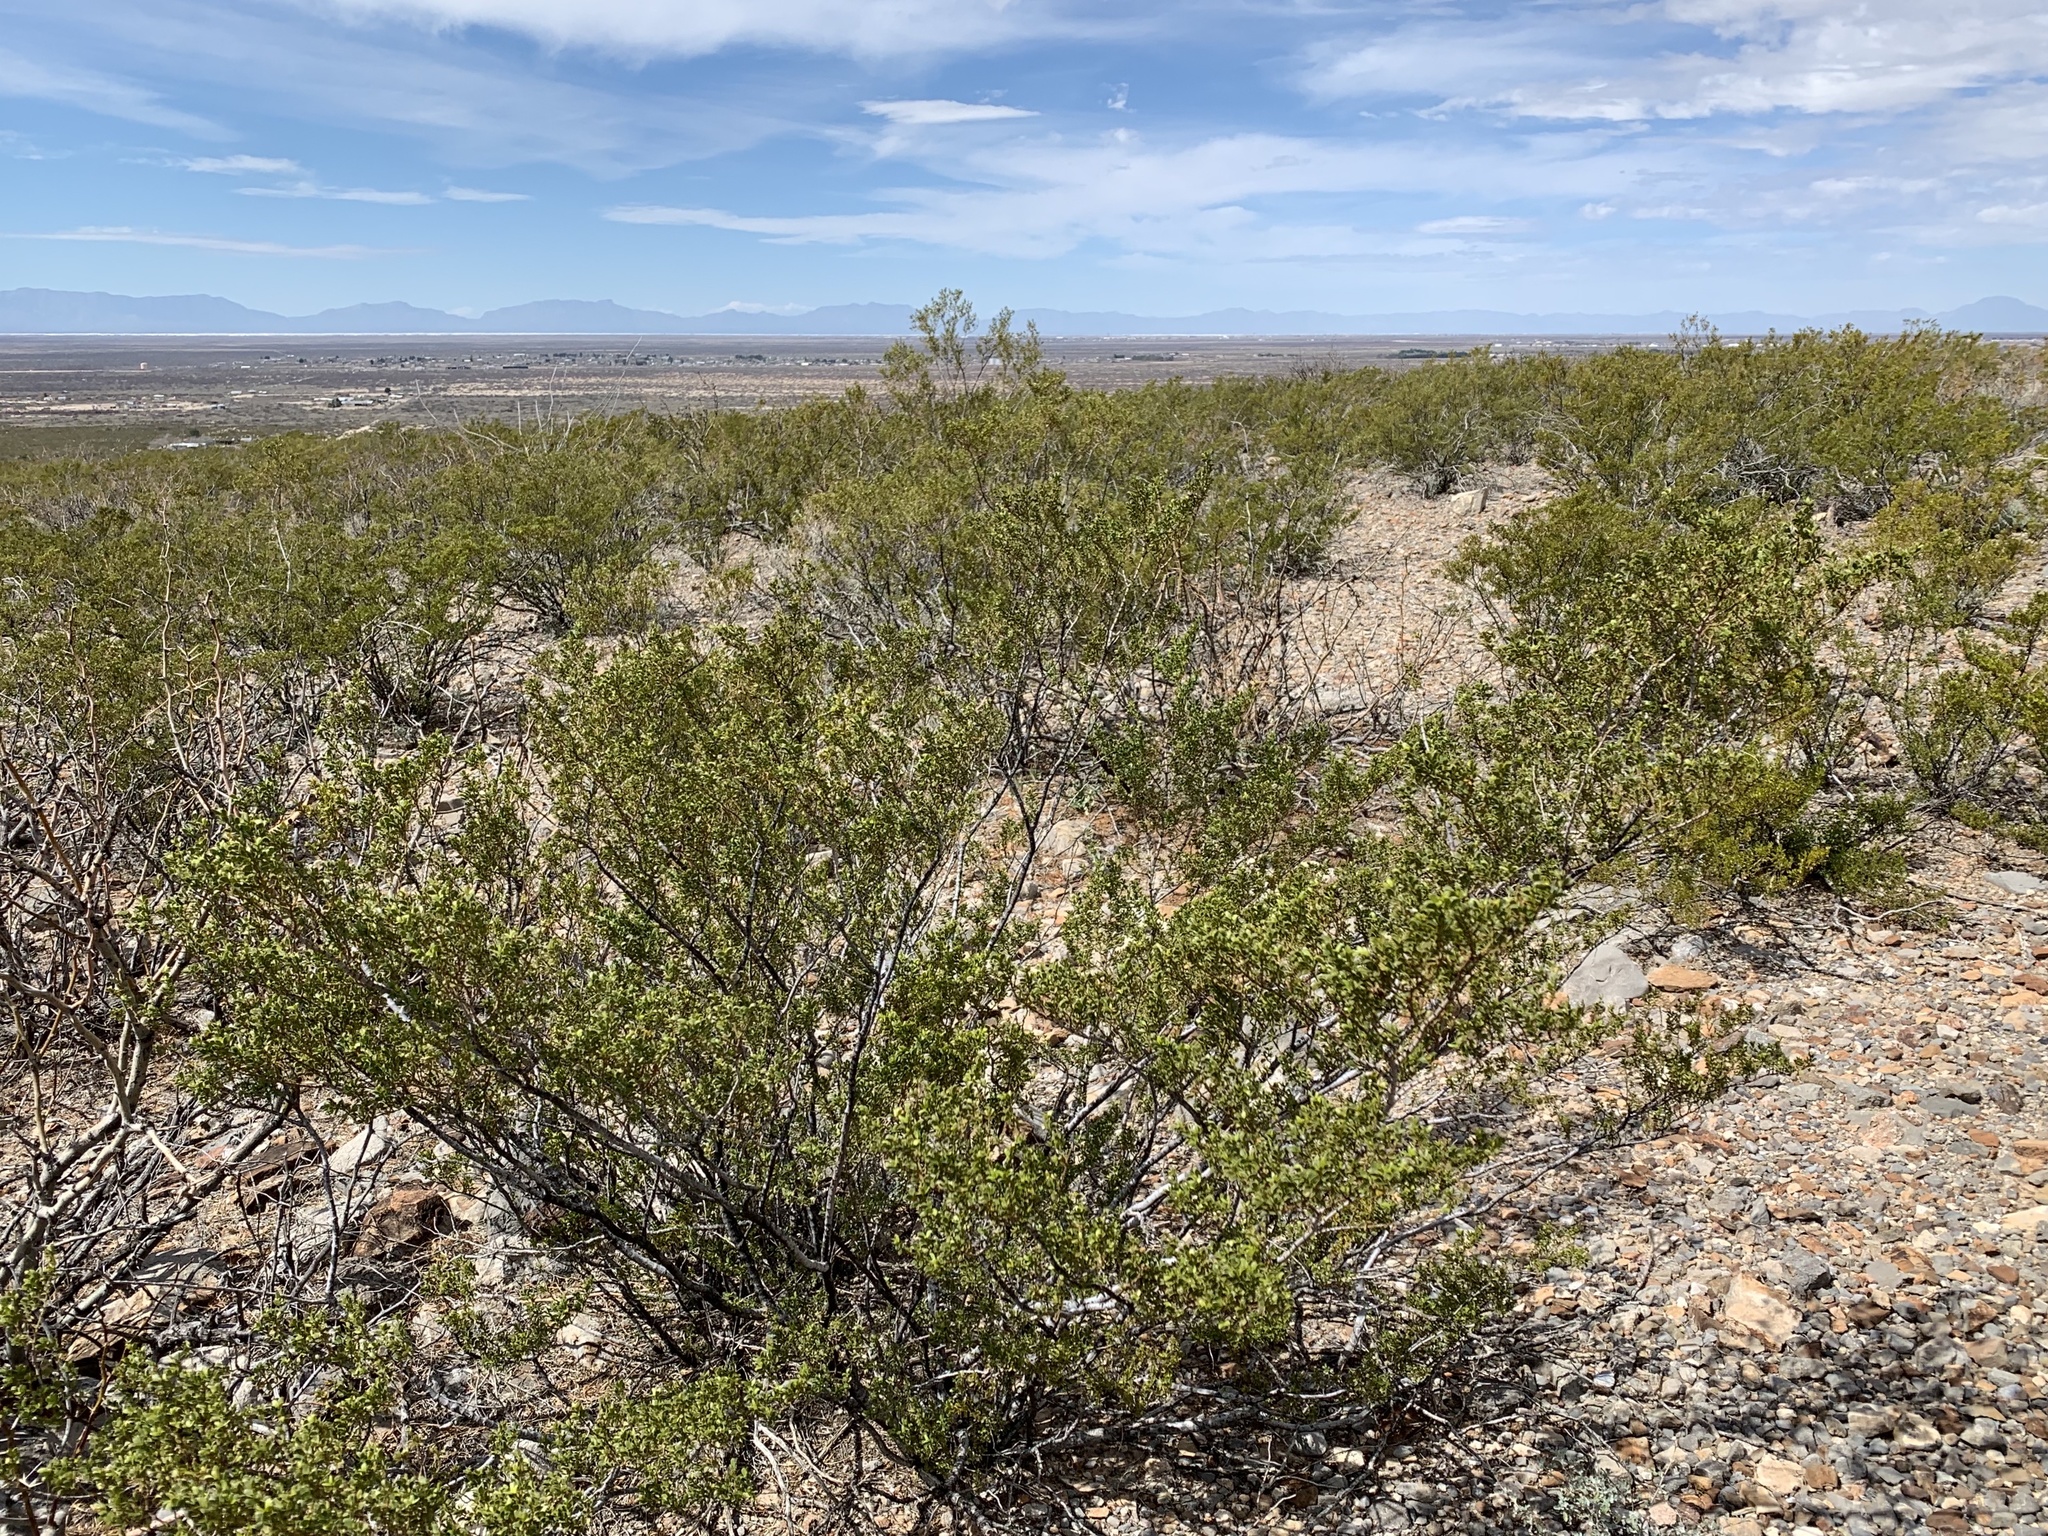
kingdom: Plantae
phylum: Tracheophyta
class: Magnoliopsida
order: Zygophyllales
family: Zygophyllaceae
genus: Larrea
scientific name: Larrea tridentata
